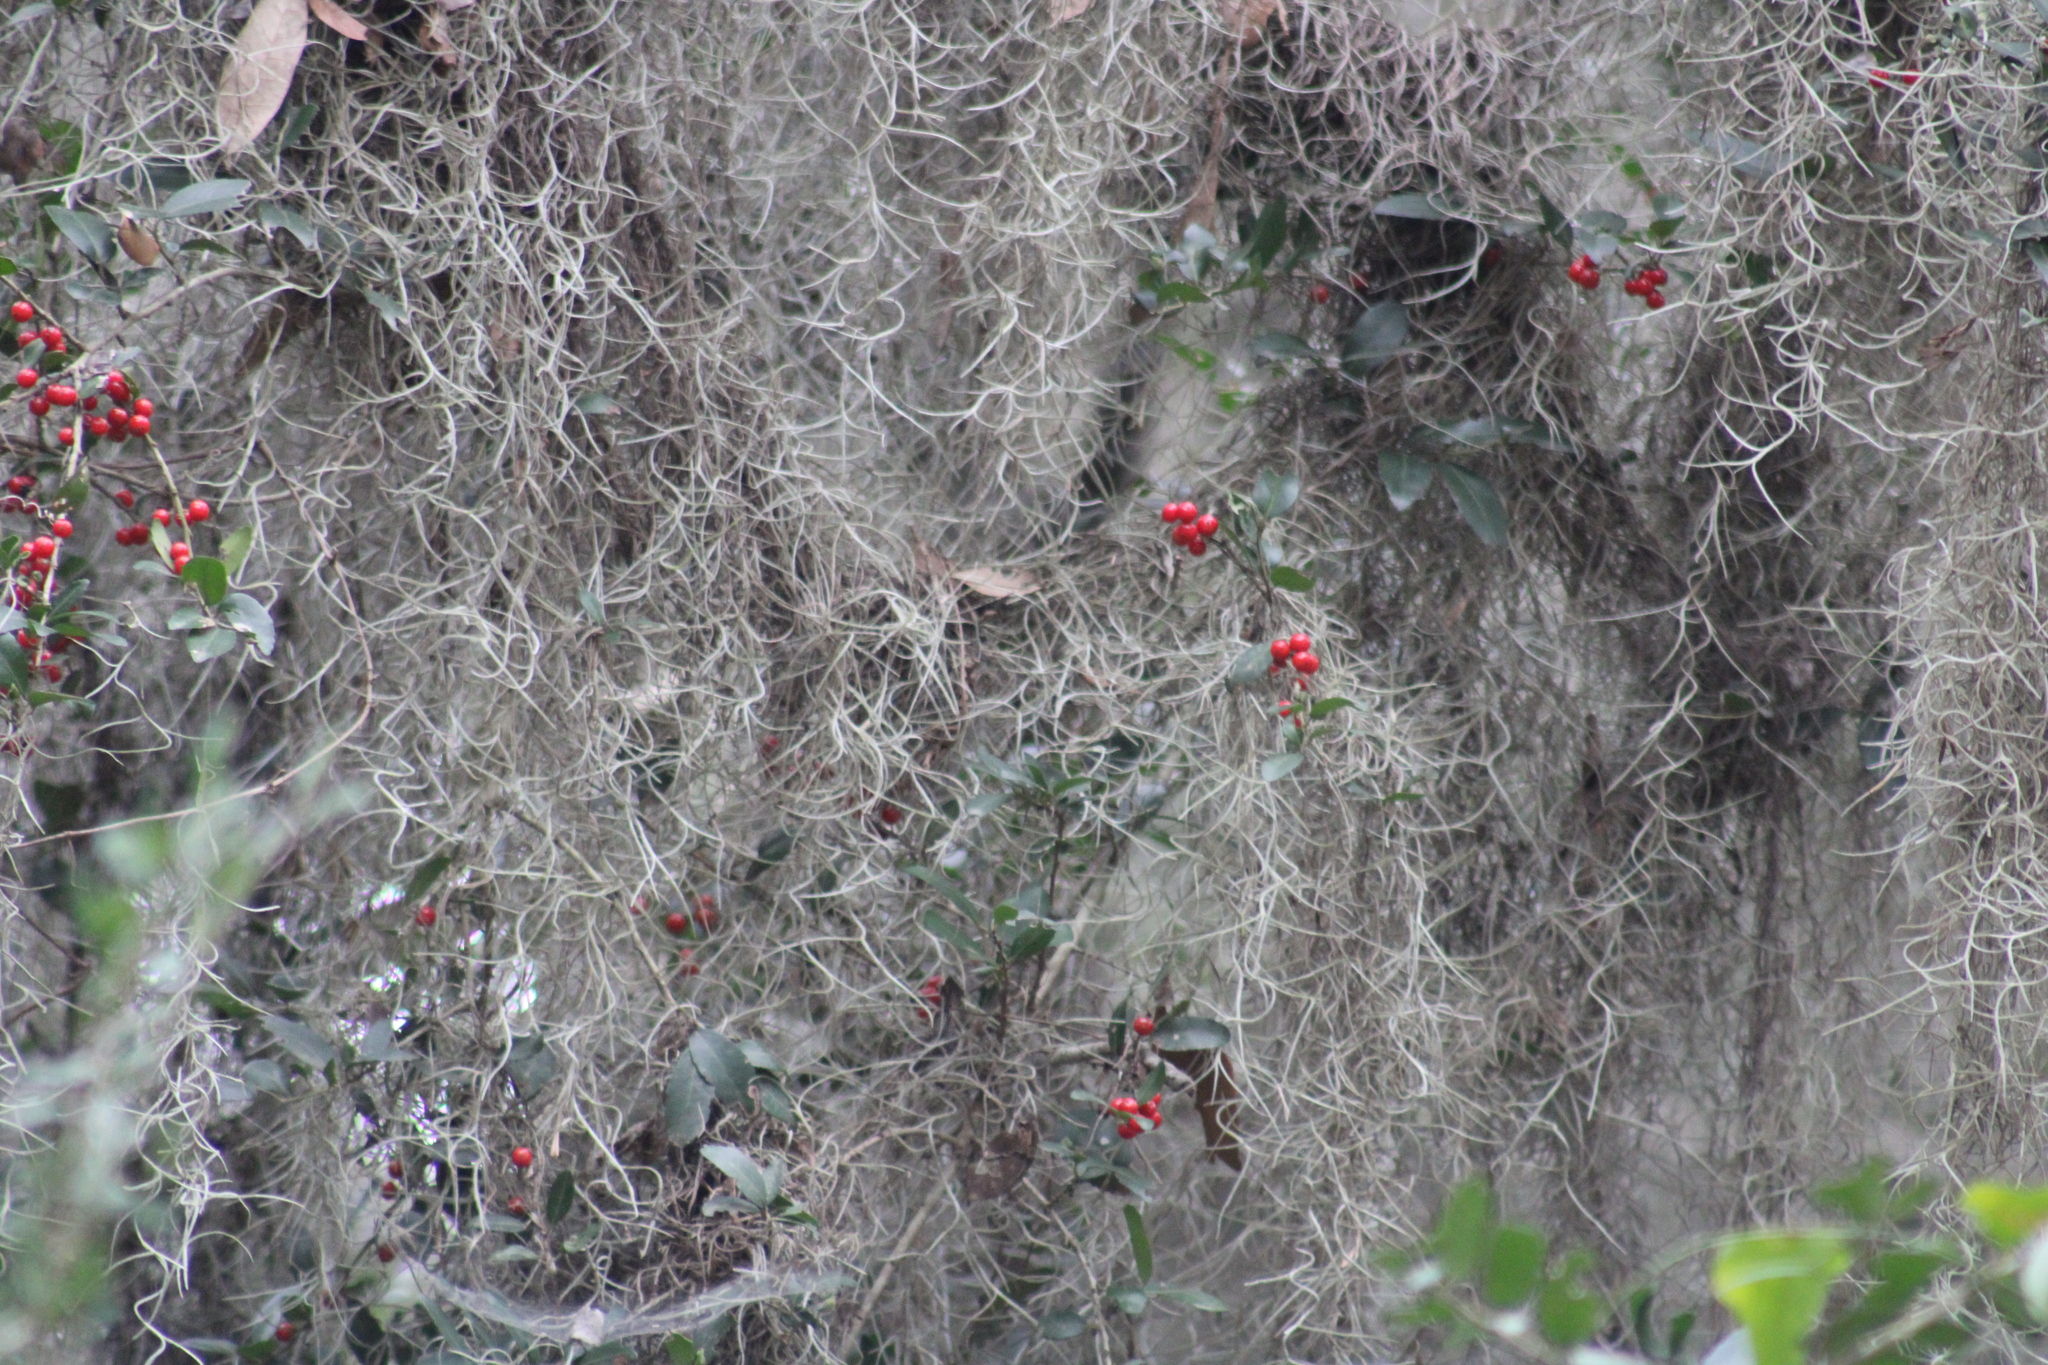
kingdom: Plantae
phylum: Tracheophyta
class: Magnoliopsida
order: Aquifoliales
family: Aquifoliaceae
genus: Ilex
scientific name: Ilex vomitoria
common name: Yaupon holly
